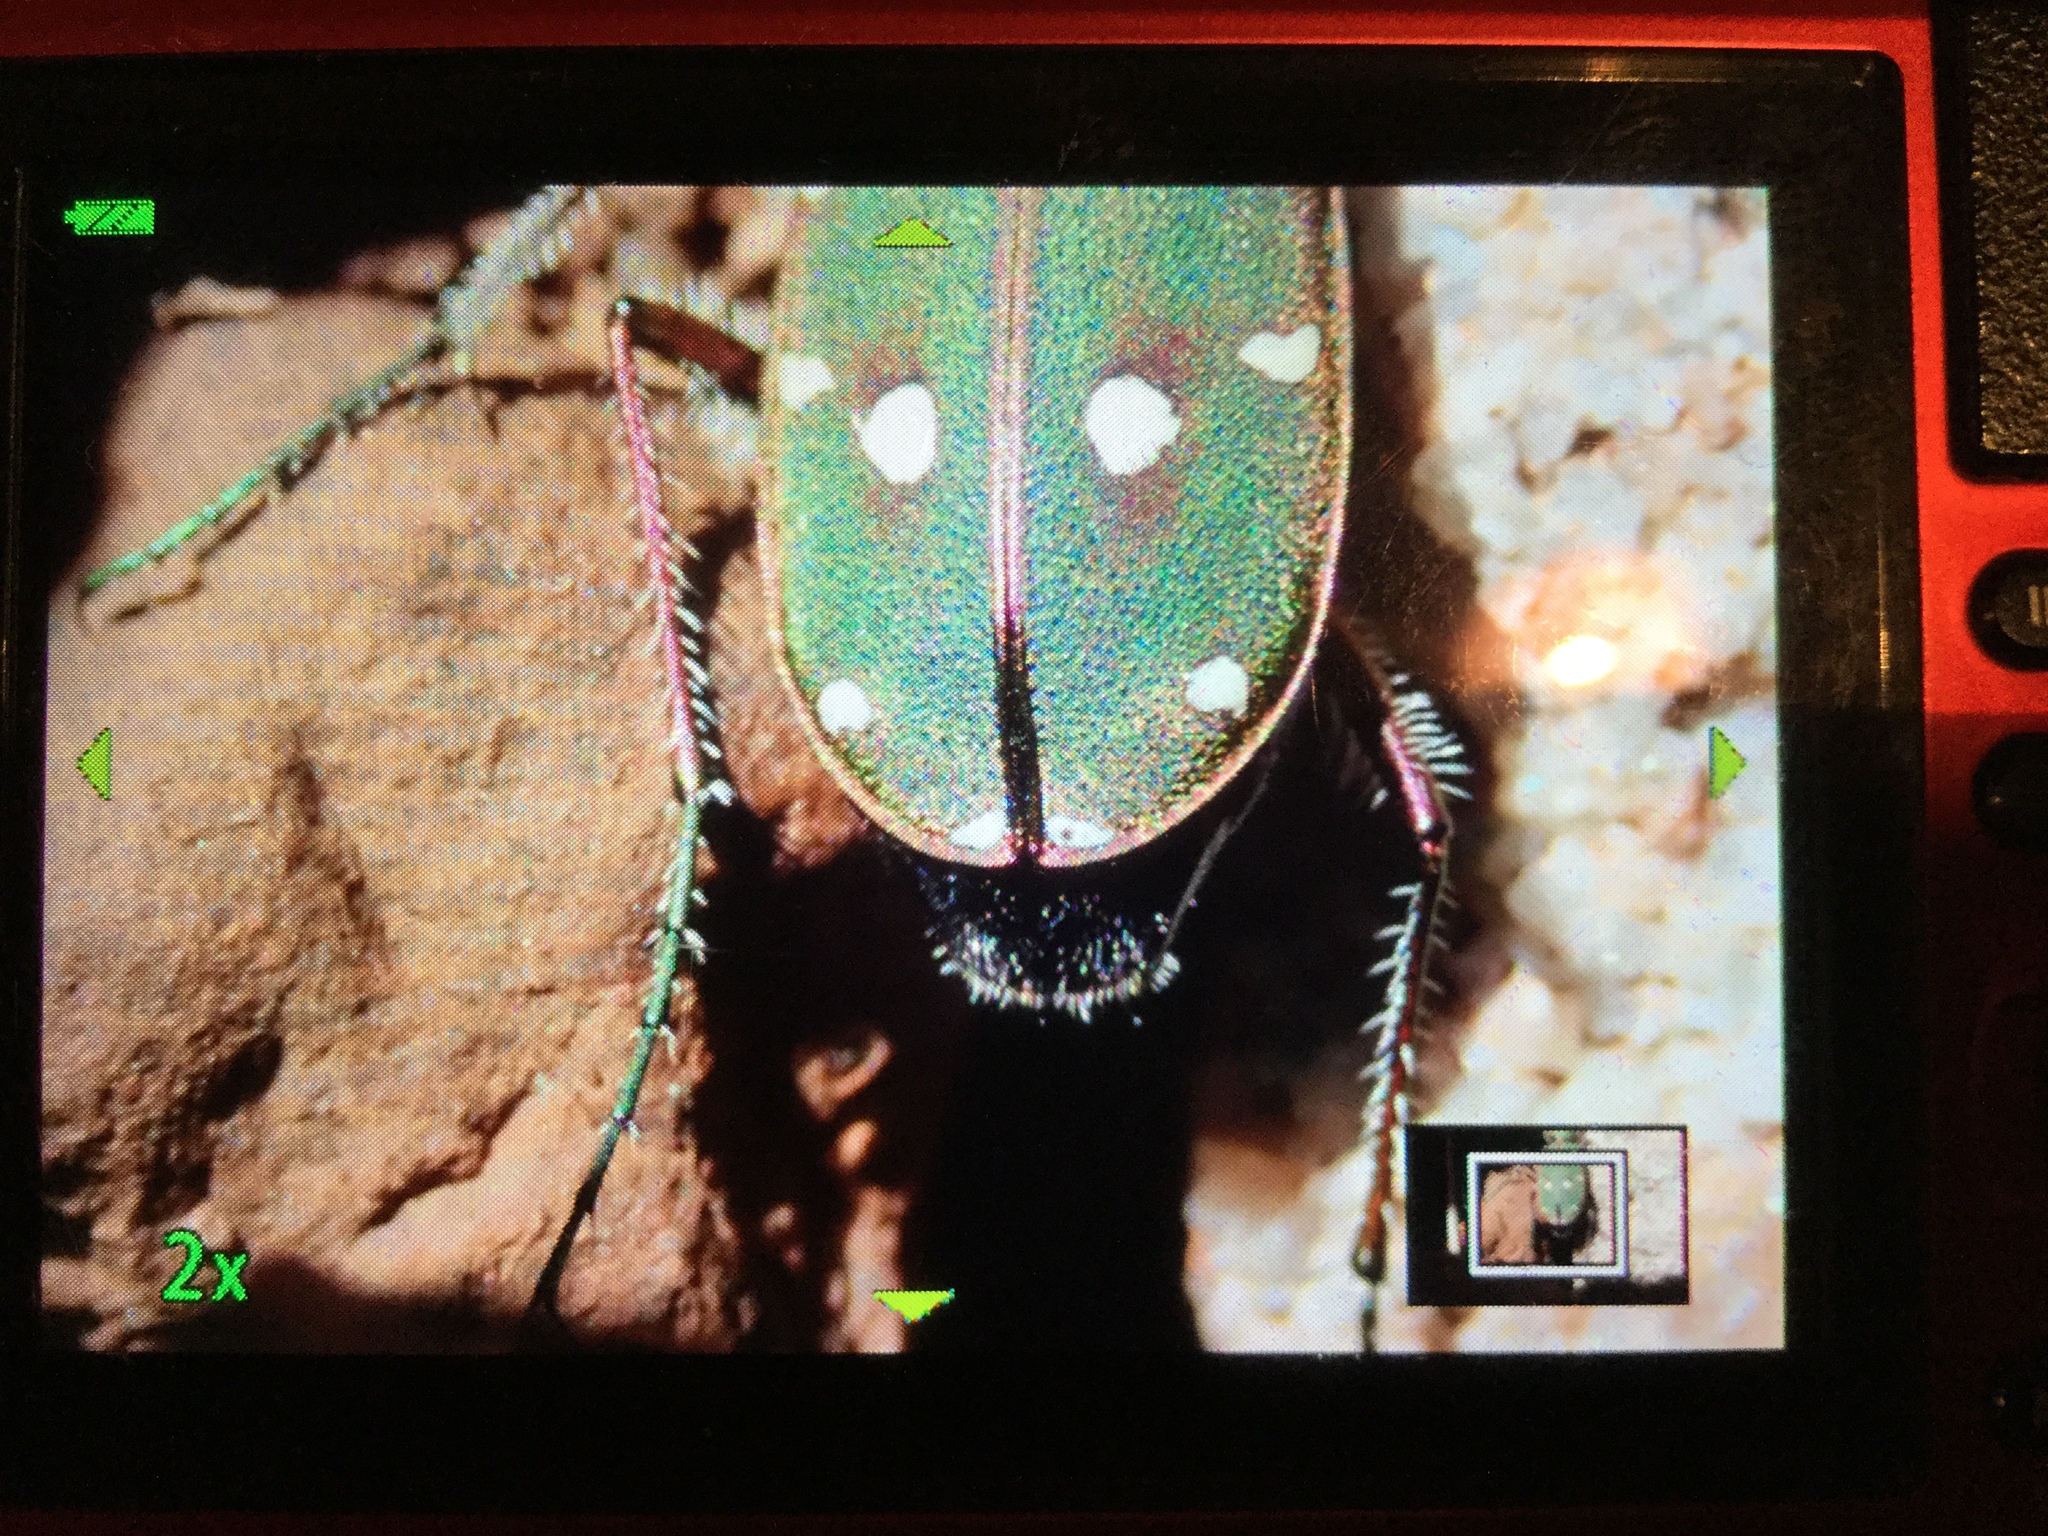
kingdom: Animalia
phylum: Arthropoda
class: Insecta
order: Coleoptera
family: Carabidae
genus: Cicindela
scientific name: Cicindela maroccana
